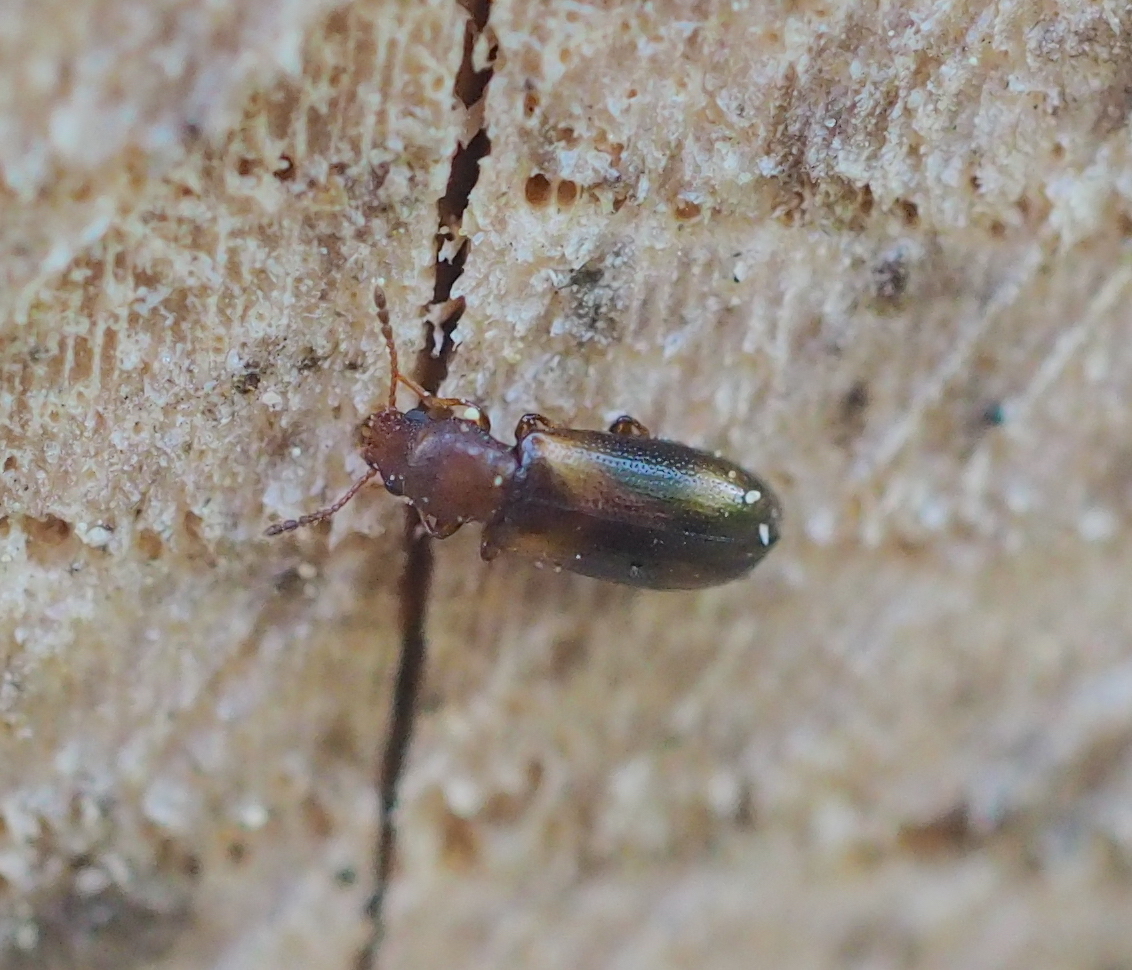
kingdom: Animalia
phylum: Arthropoda
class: Insecta
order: Coleoptera
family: Salpingidae
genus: Lissodema
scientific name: Lissodema denticolle
